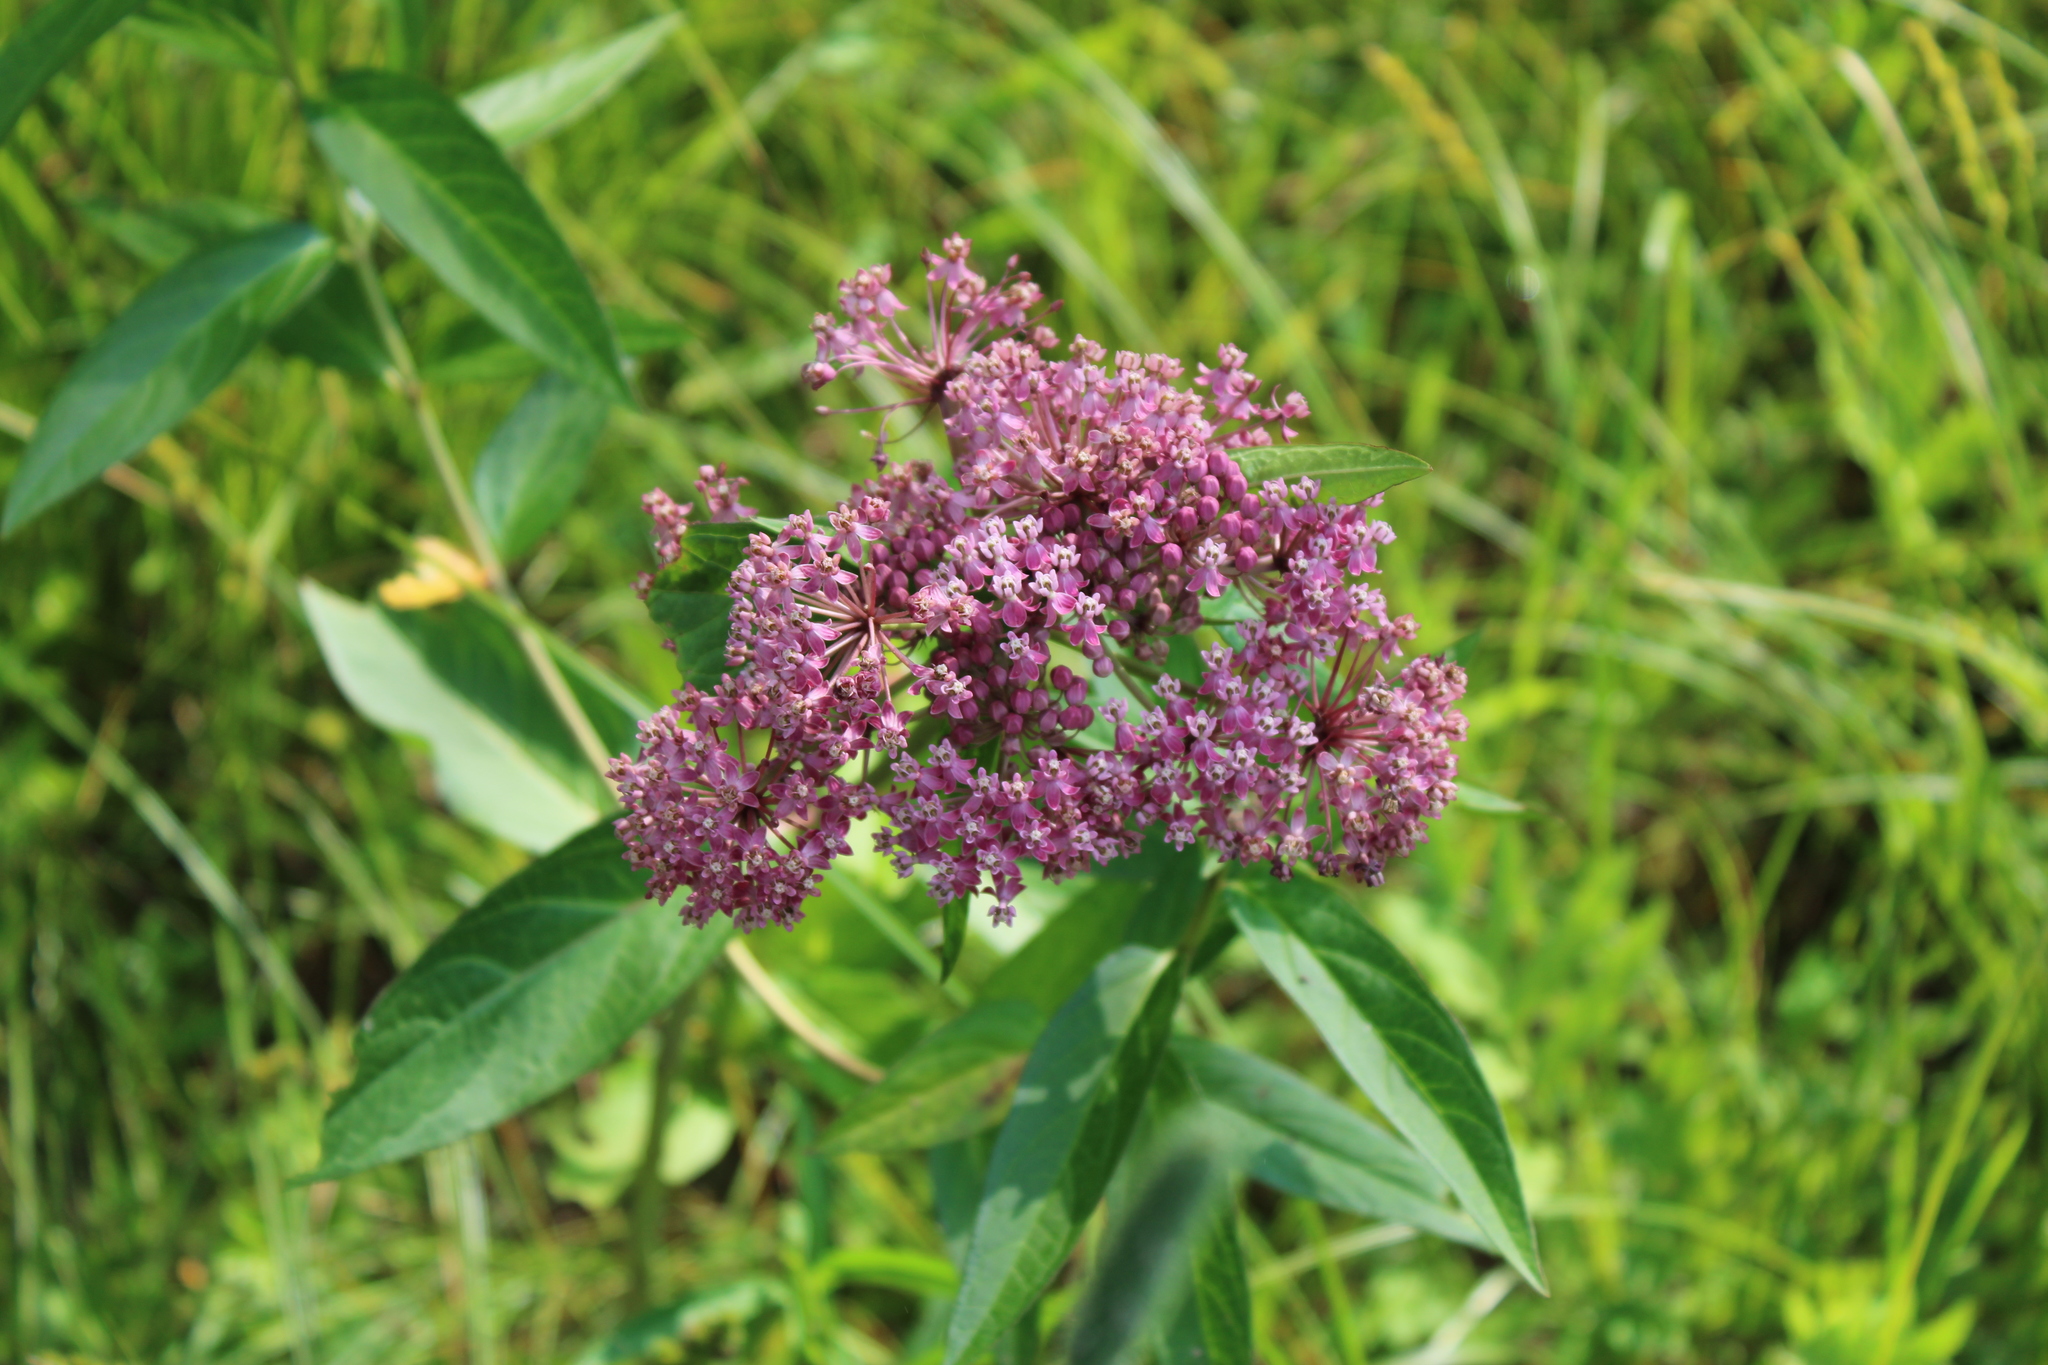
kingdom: Plantae
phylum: Tracheophyta
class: Magnoliopsida
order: Gentianales
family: Apocynaceae
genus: Asclepias
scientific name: Asclepias incarnata
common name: Swamp milkweed
